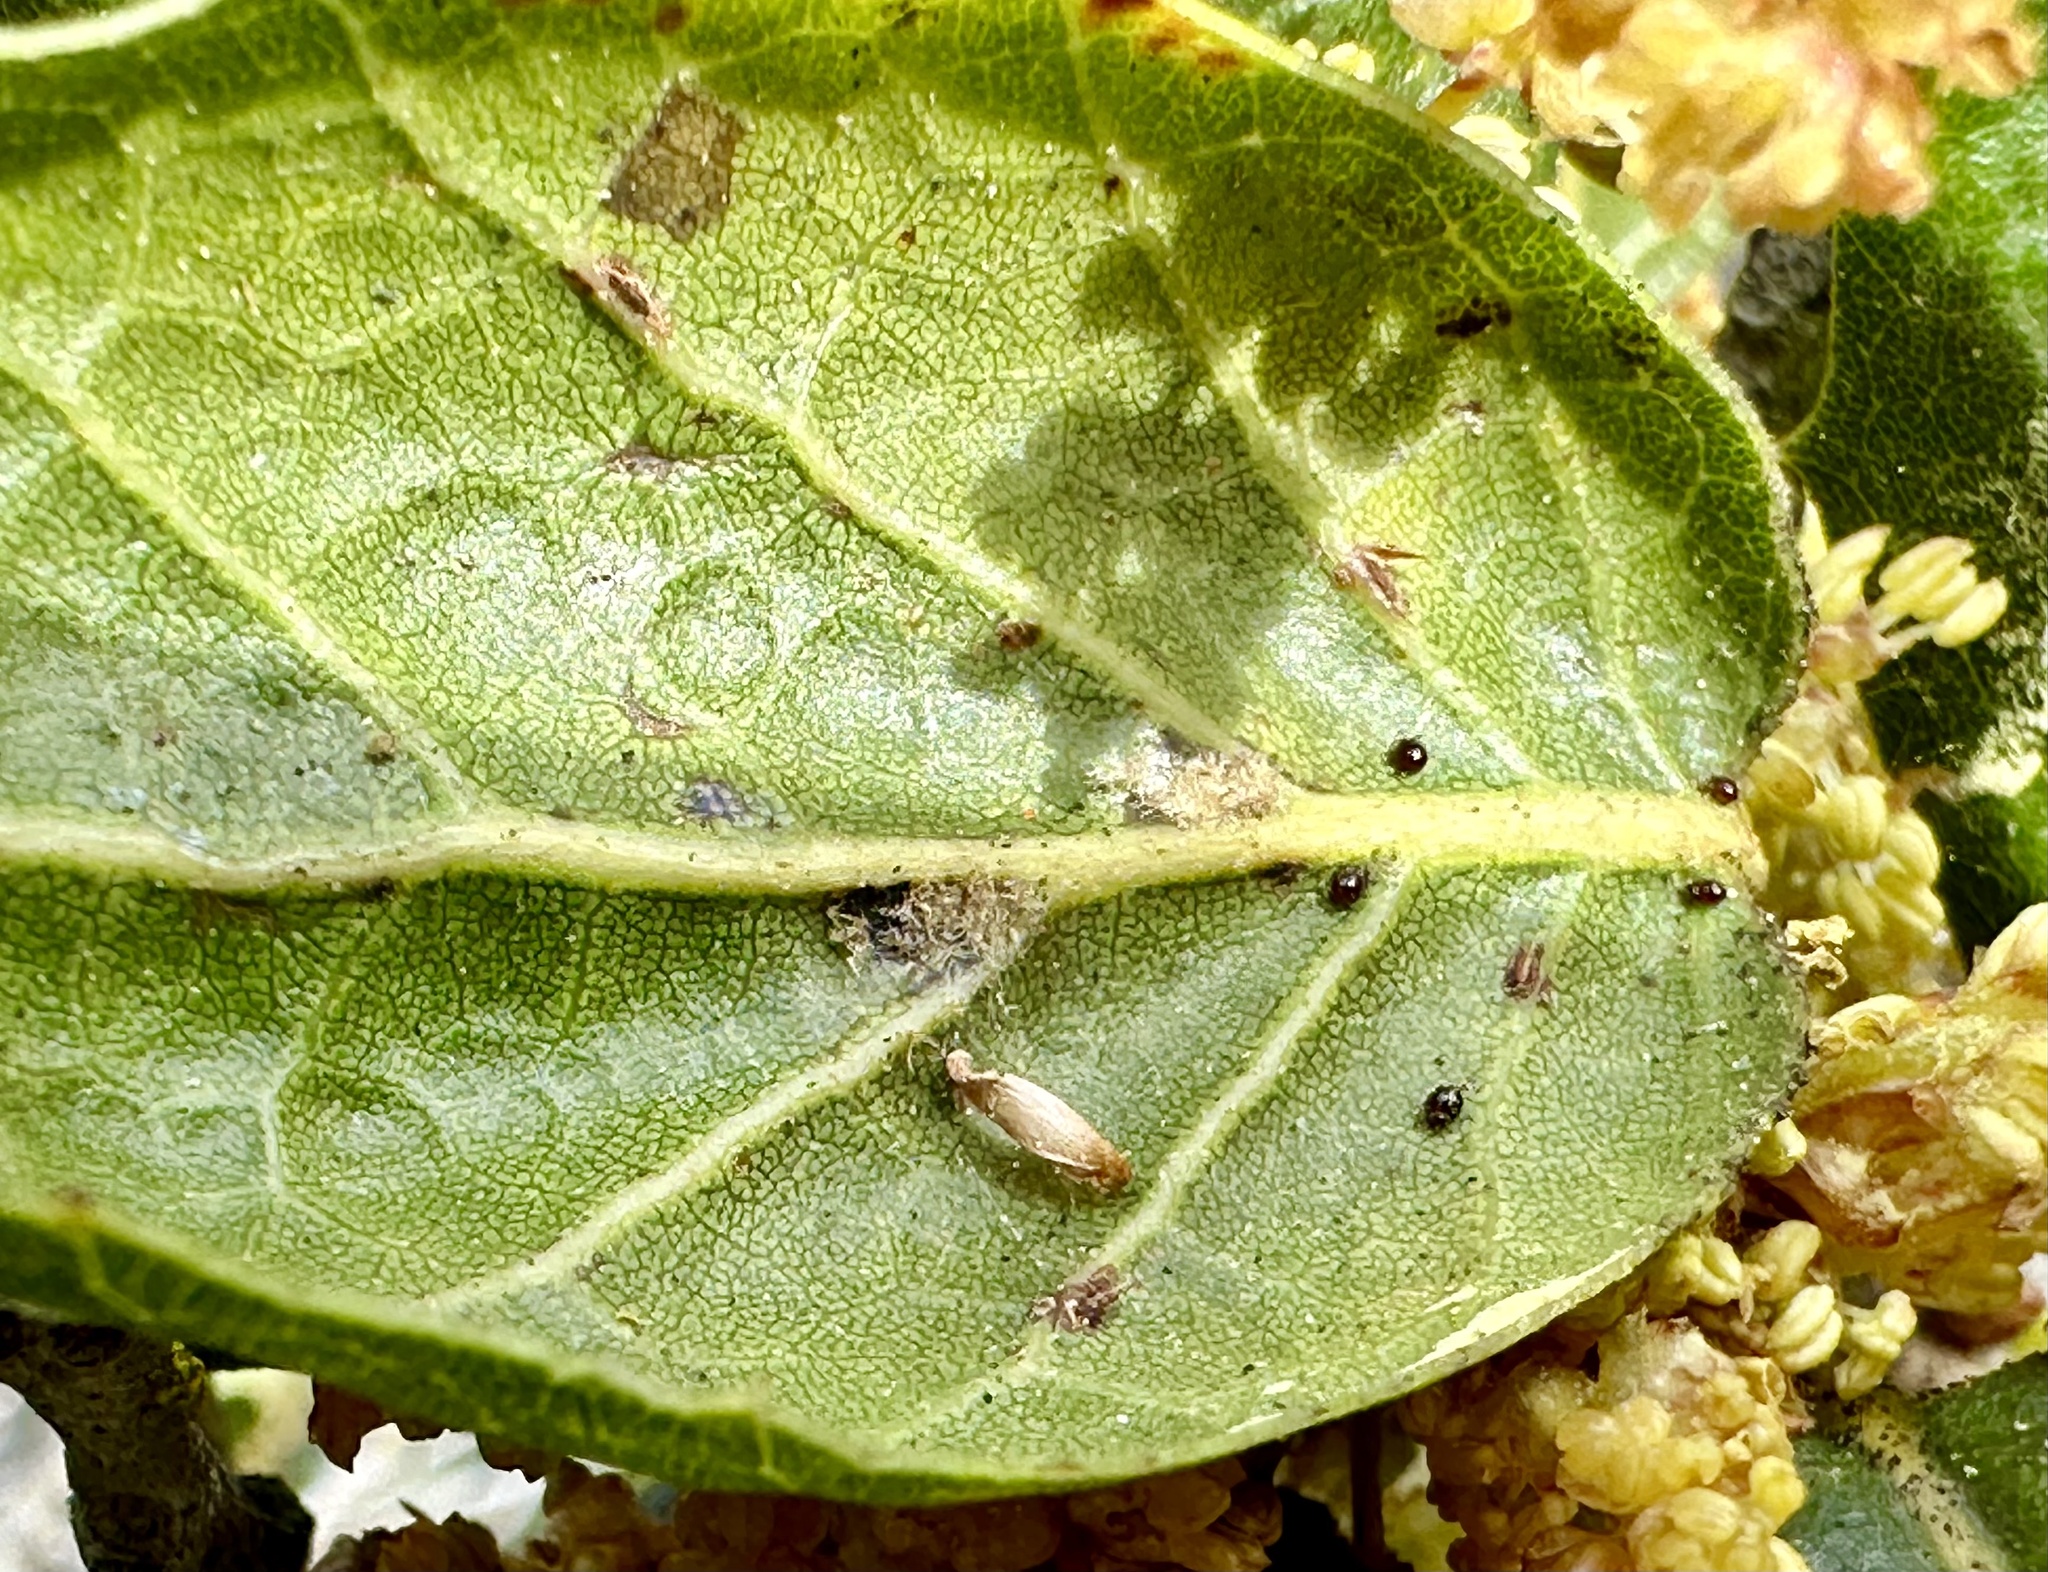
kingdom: Plantae
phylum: Tracheophyta
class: Magnoliopsida
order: Fagales
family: Fagaceae
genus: Quercus
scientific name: Quercus agrifolia
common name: California live oak
